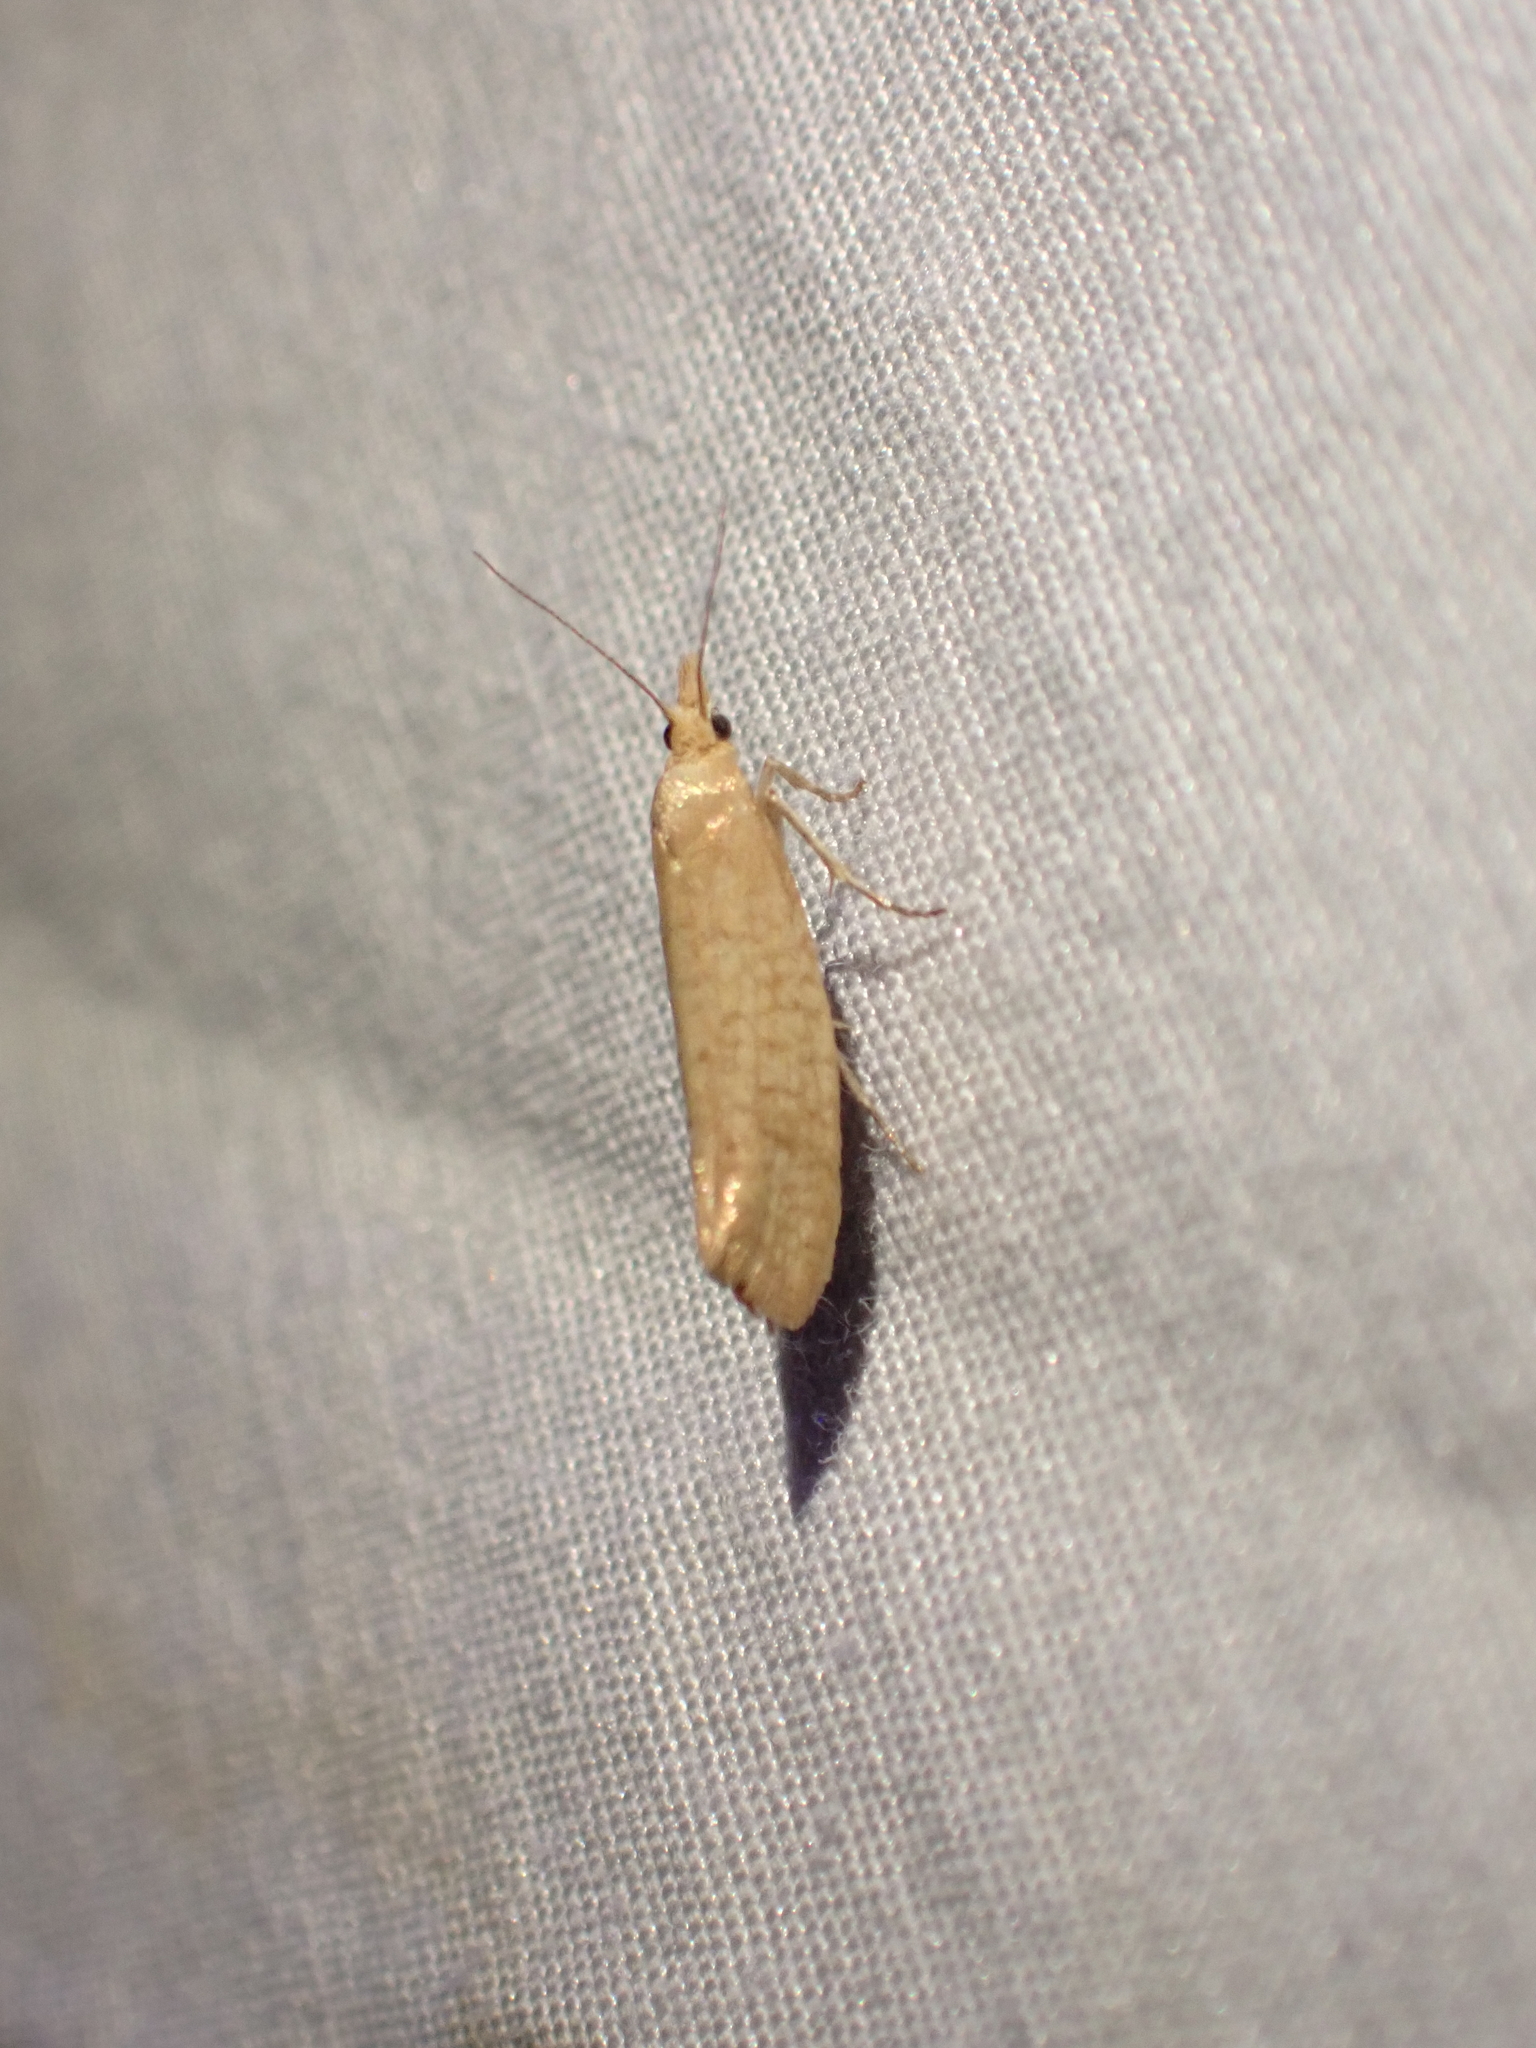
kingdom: Animalia
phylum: Arthropoda
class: Insecta
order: Lepidoptera
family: Ypsolophidae
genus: Ypsolopha
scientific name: Ypsolopha cervella
